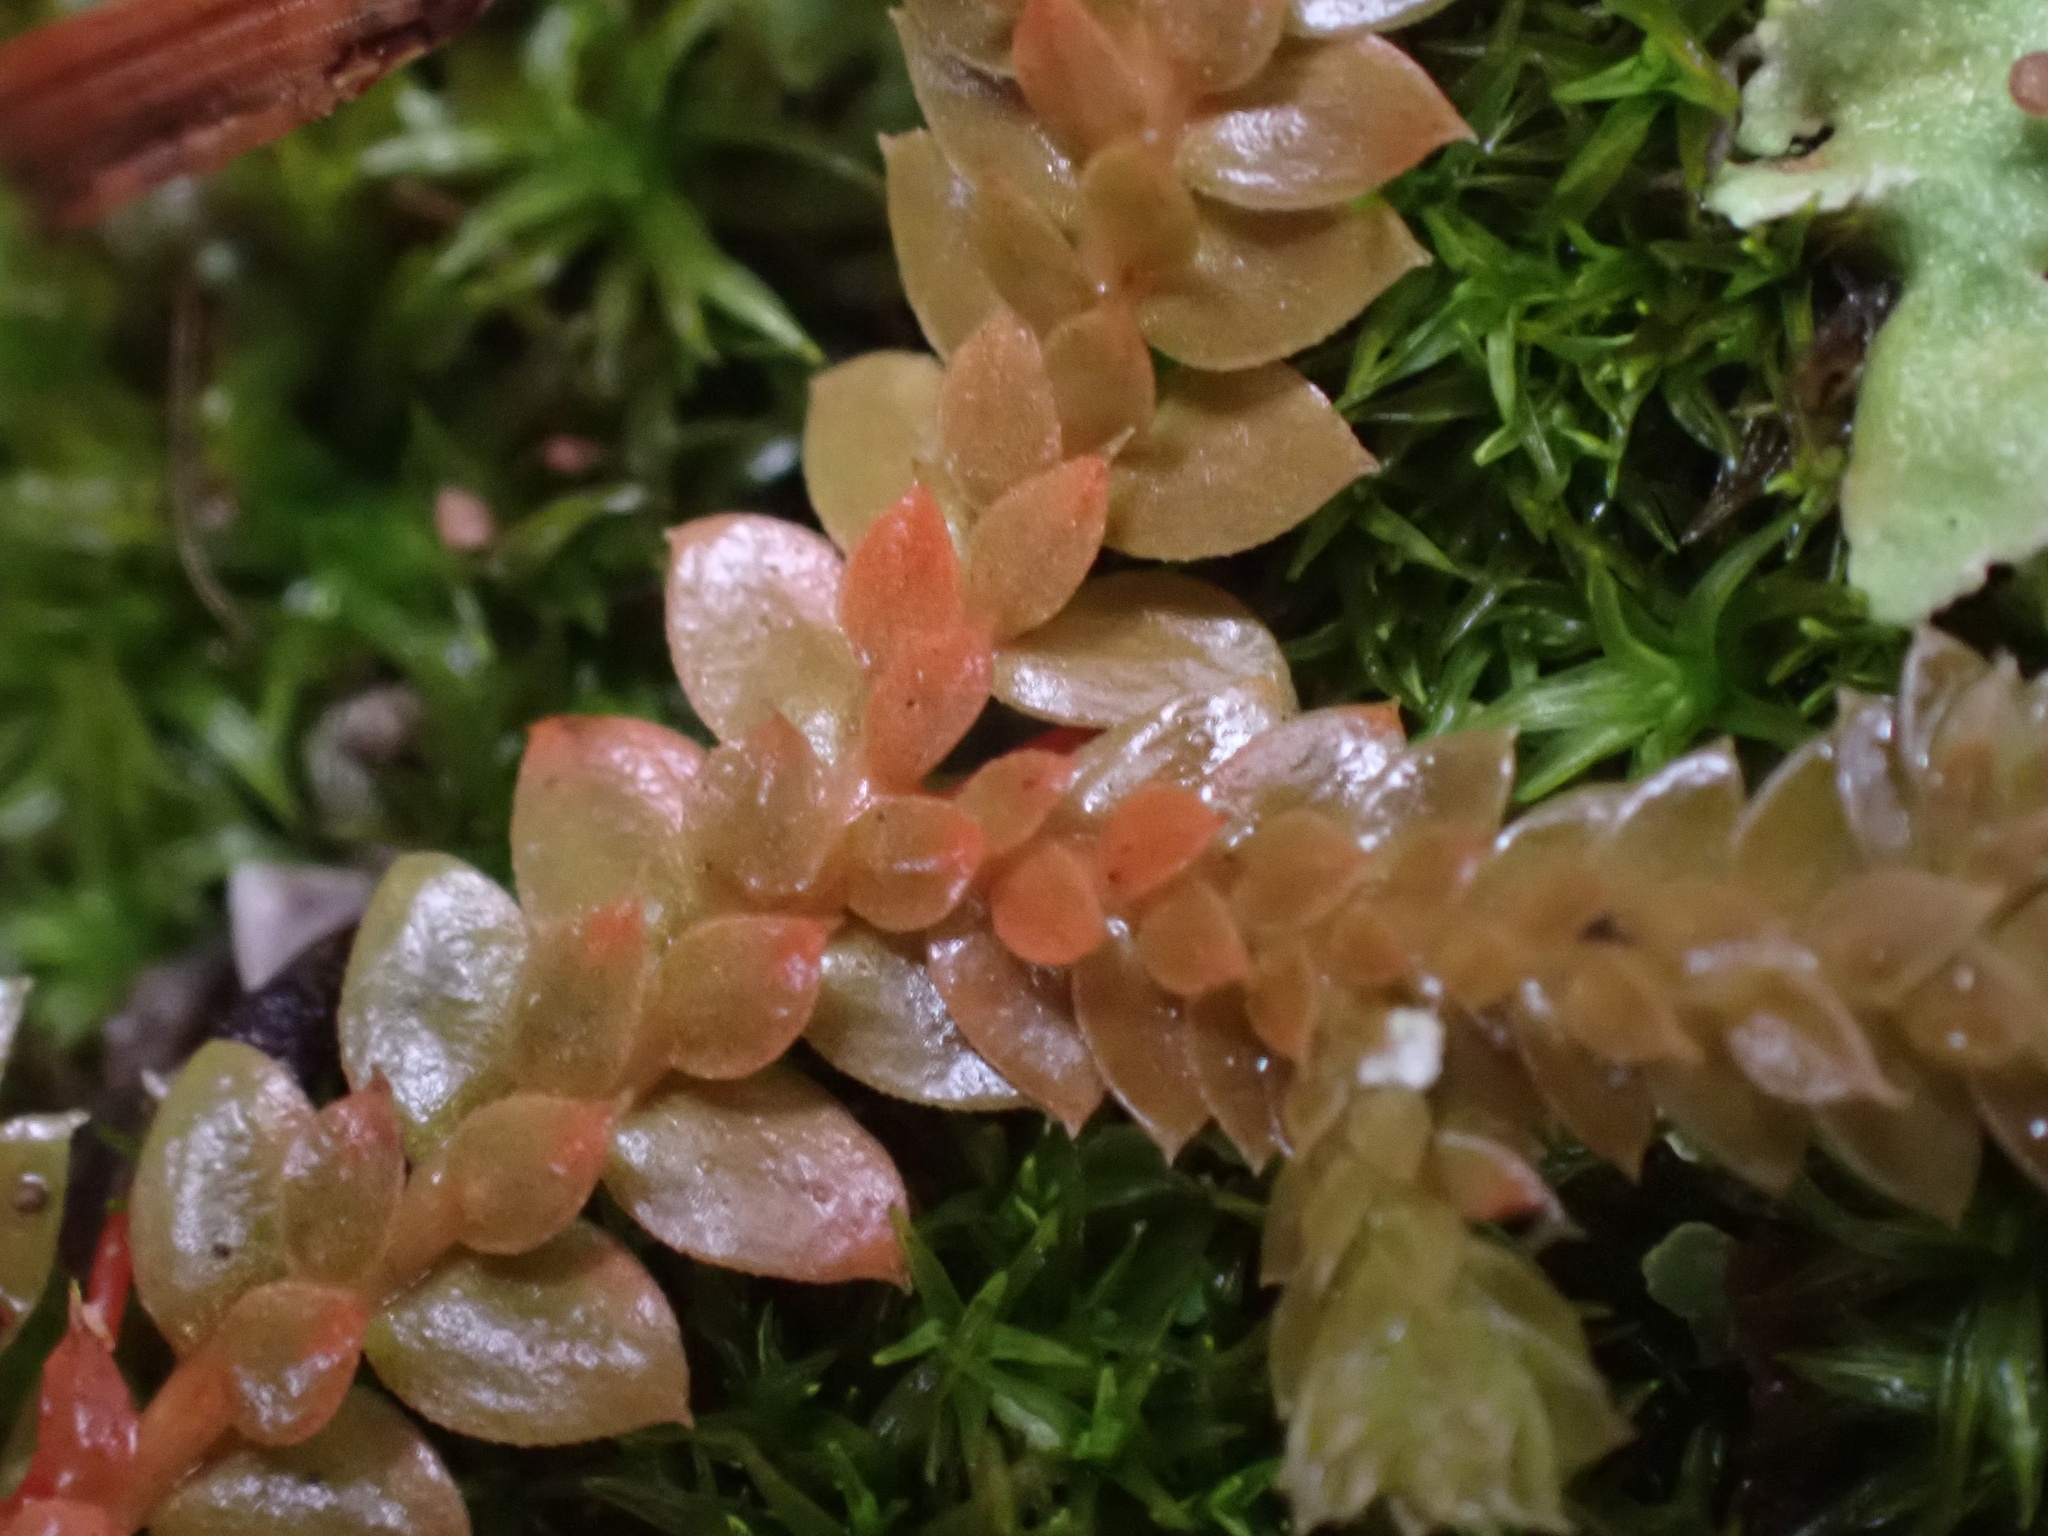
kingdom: Plantae
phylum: Tracheophyta
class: Lycopodiopsida
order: Selaginellales
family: Selaginellaceae
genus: Selaginella
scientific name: Selaginella denticulata
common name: Toothed-leaved clubmoss
